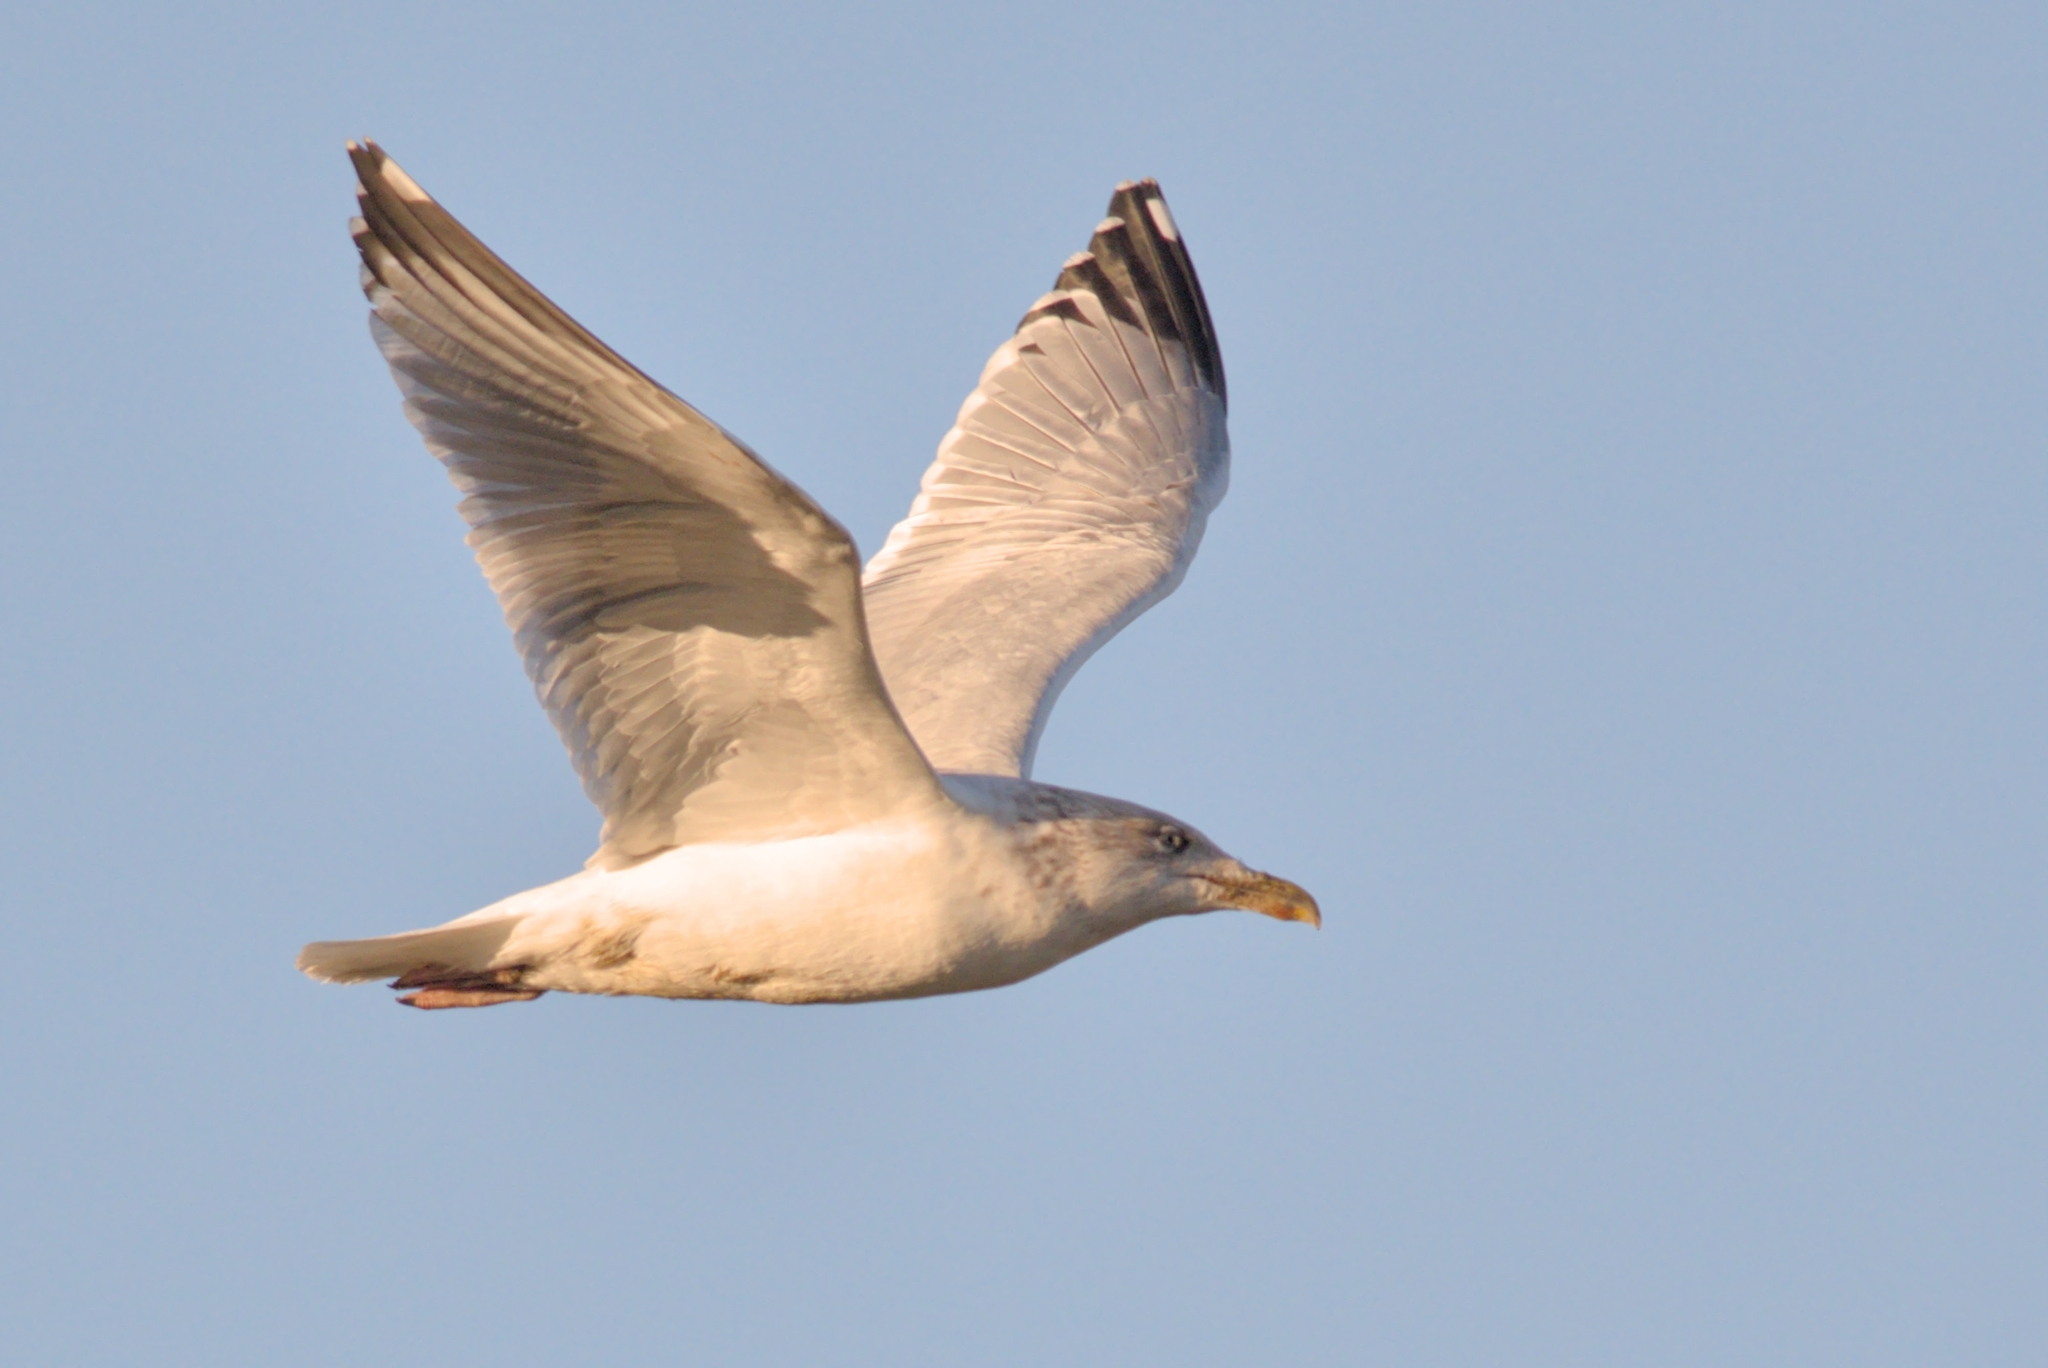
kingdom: Animalia
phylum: Chordata
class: Aves
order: Charadriiformes
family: Laridae
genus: Larus
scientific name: Larus argentatus
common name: Herring gull
